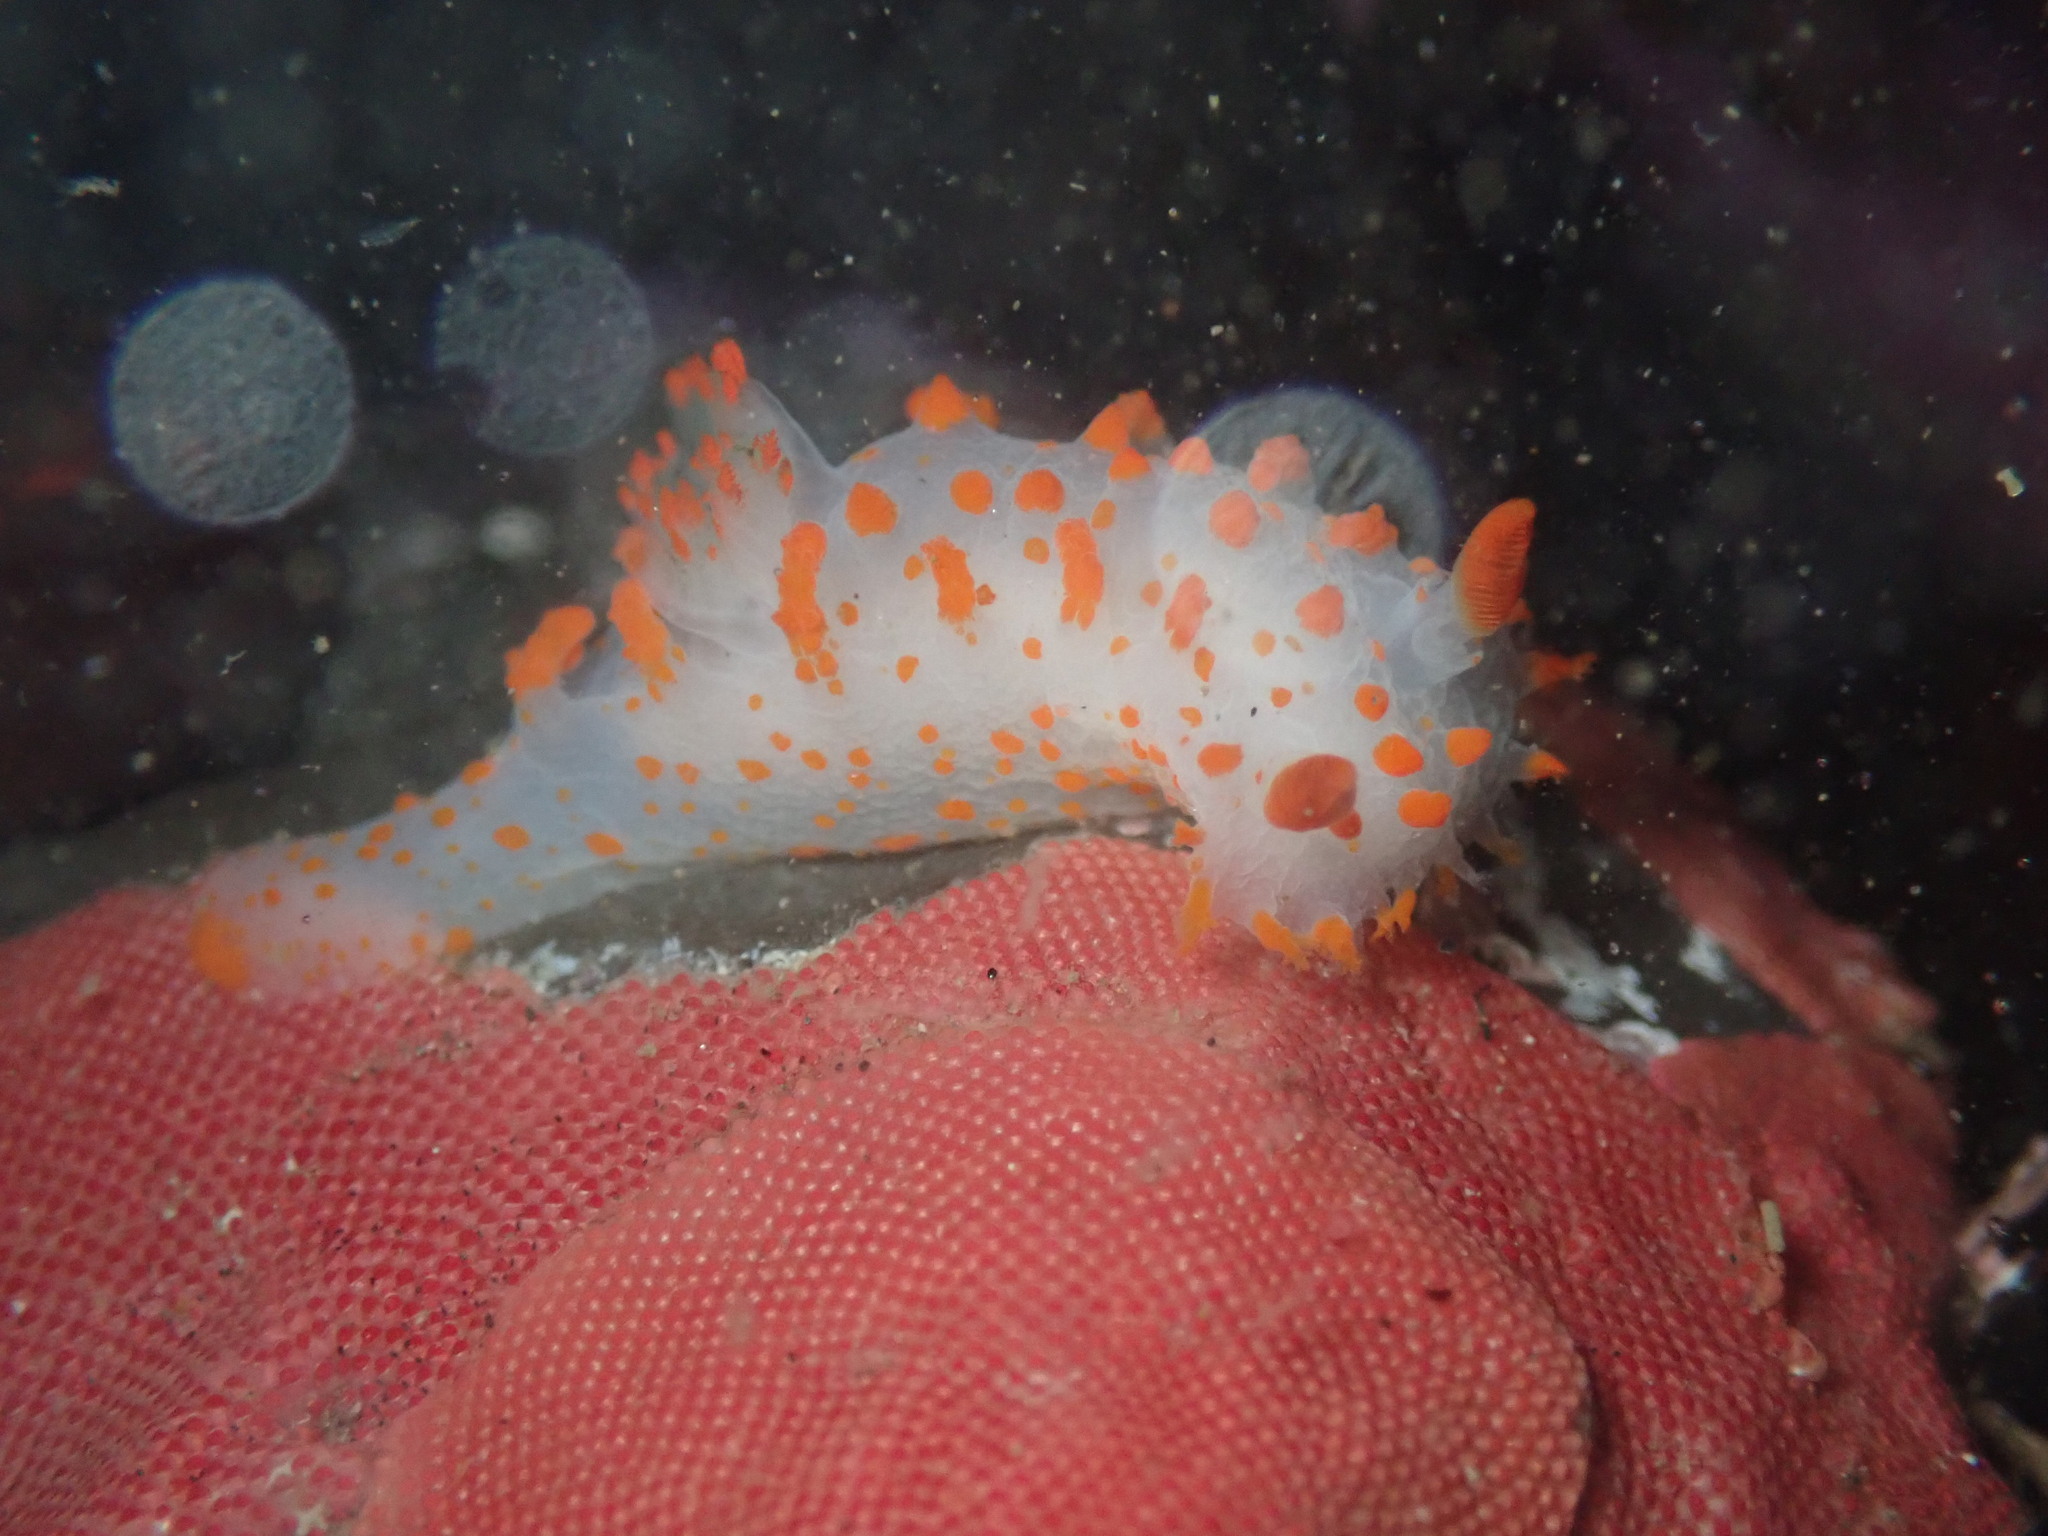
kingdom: Animalia
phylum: Mollusca
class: Gastropoda
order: Nudibranchia
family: Polyceridae
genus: Triopha
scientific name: Triopha catalinae
